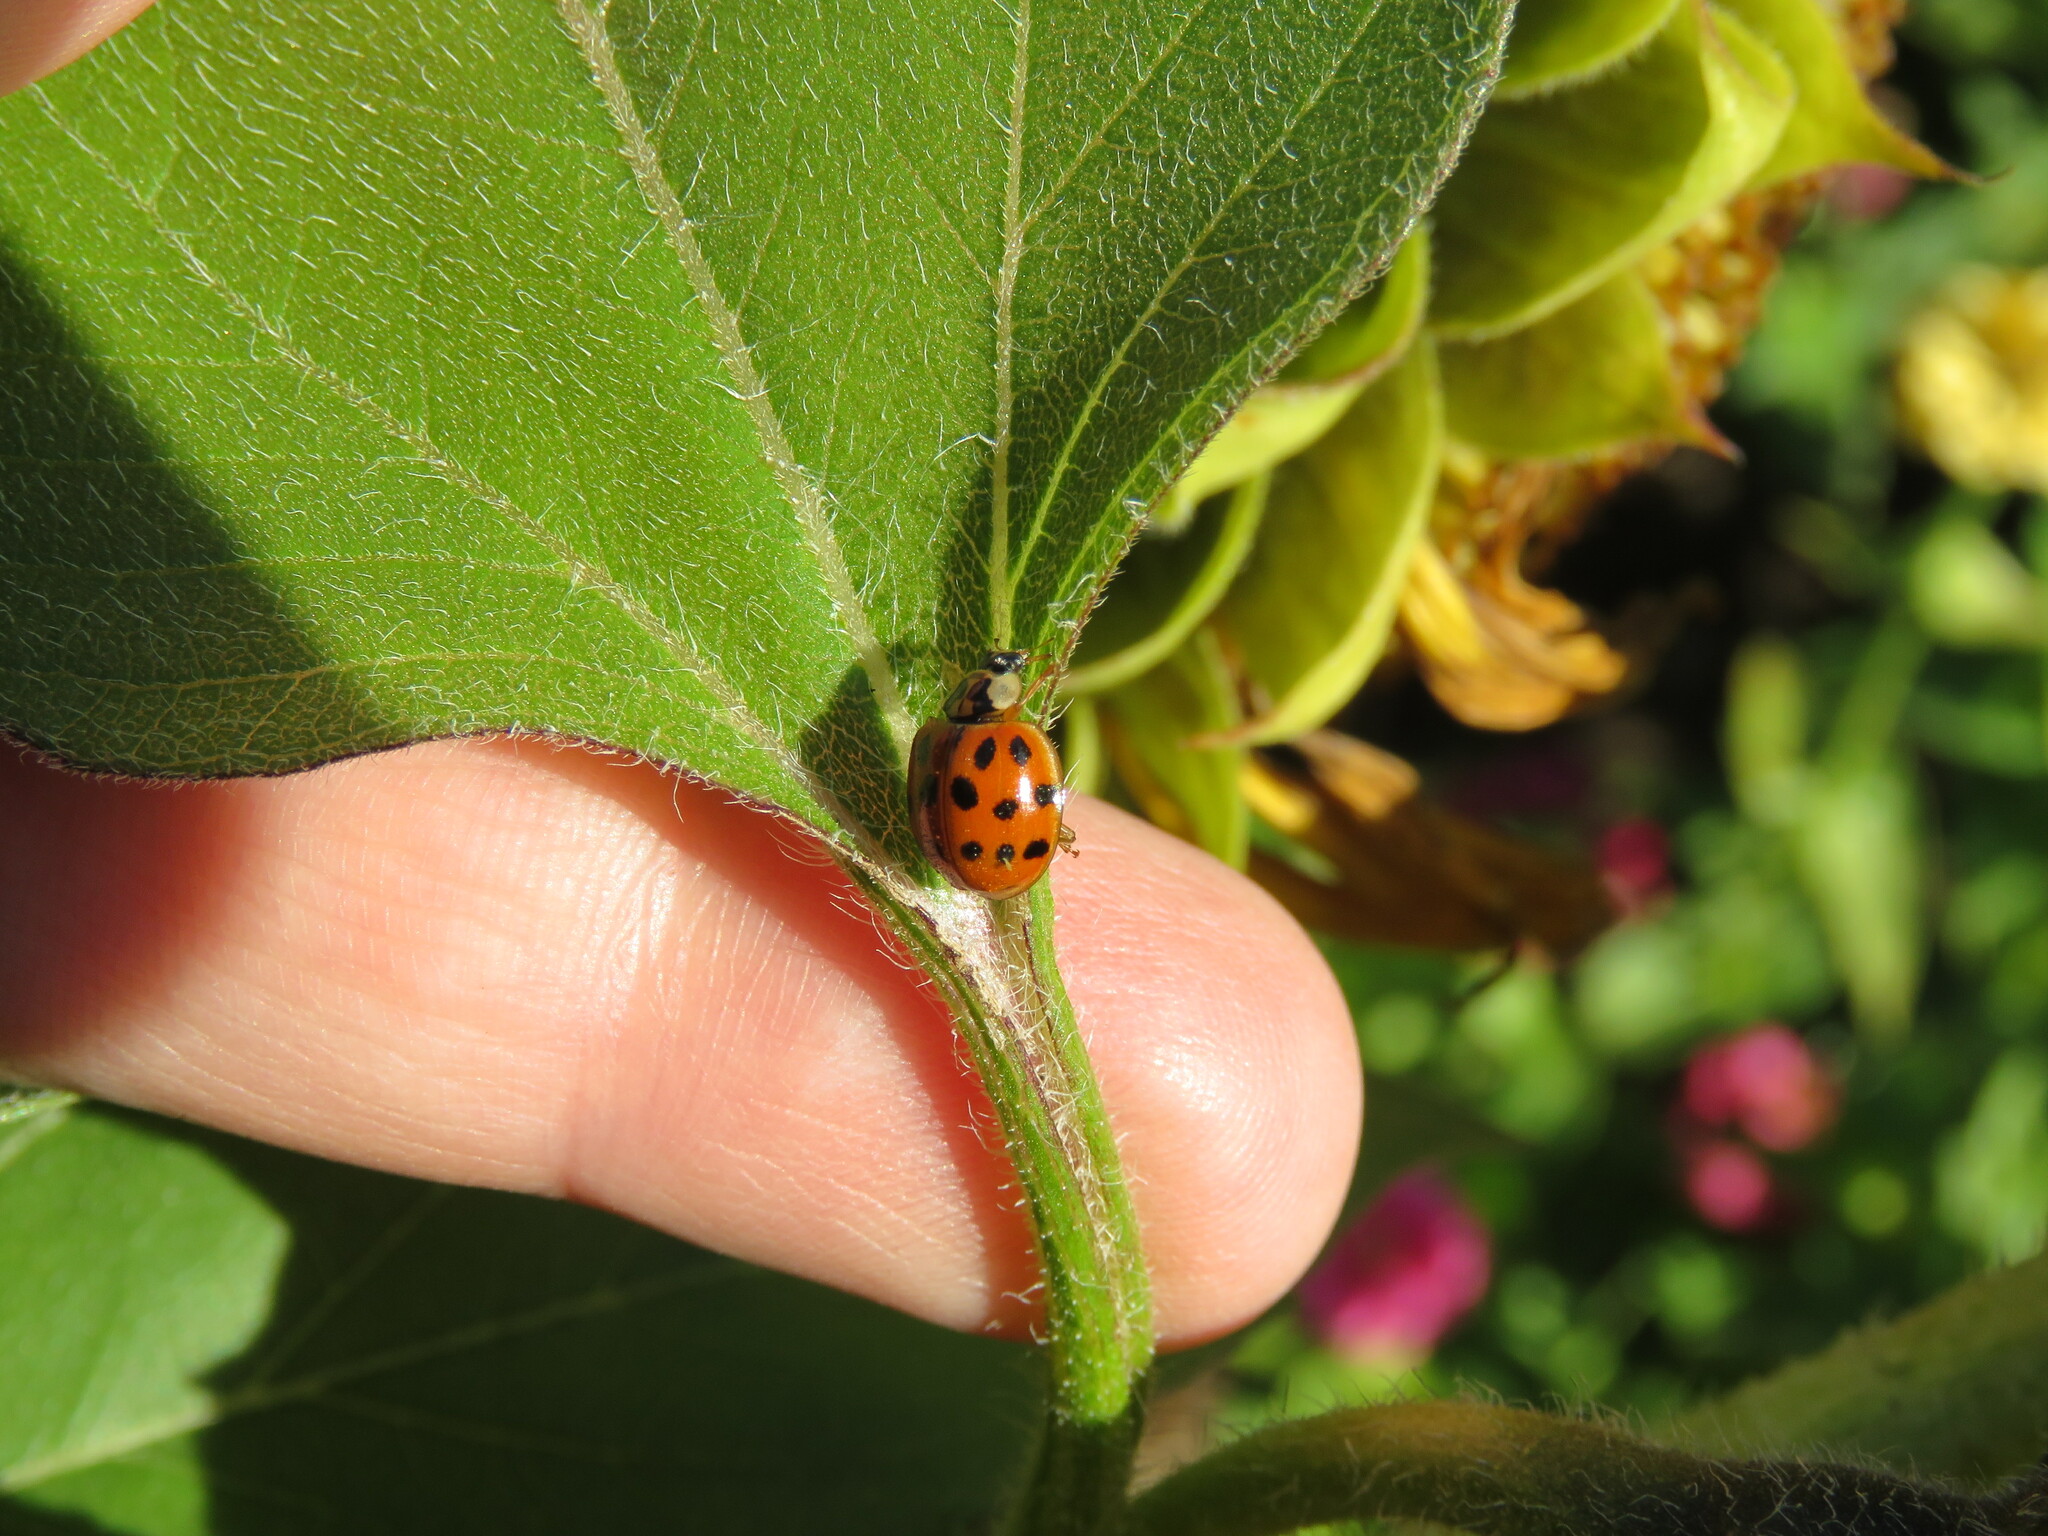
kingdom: Animalia
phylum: Arthropoda
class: Insecta
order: Coleoptera
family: Coccinellidae
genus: Harmonia
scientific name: Harmonia axyridis
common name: Harlequin ladybird
